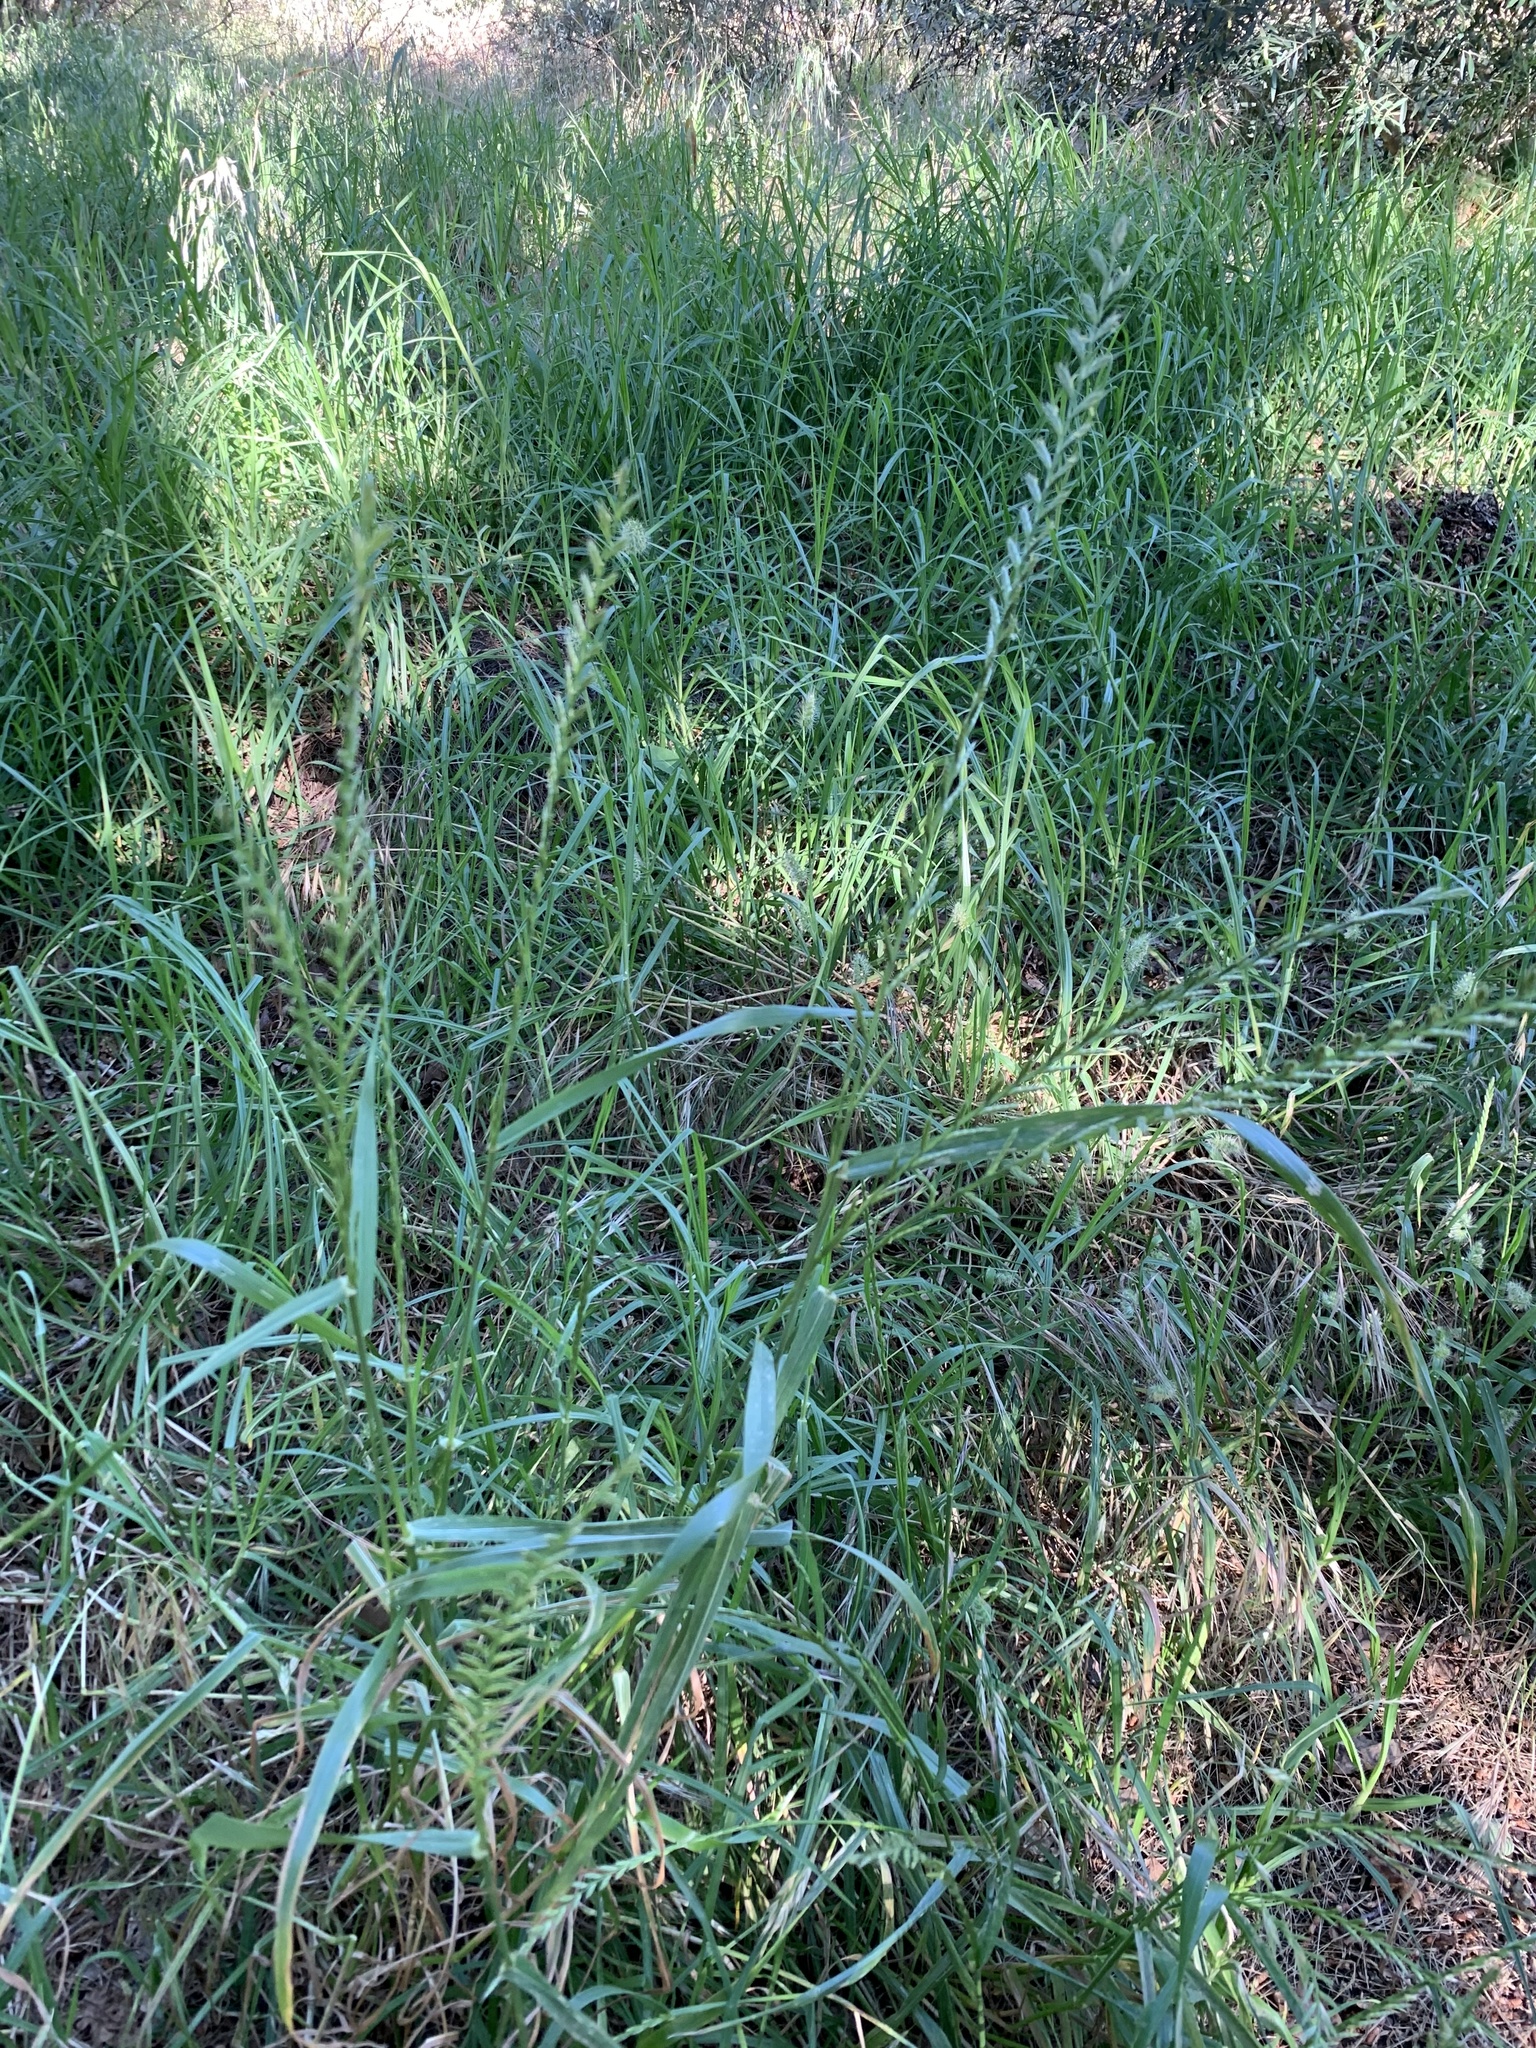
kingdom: Plantae
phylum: Tracheophyta
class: Liliopsida
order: Poales
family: Poaceae
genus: Lolium
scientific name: Lolium multiflorum
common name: Annual ryegrass
